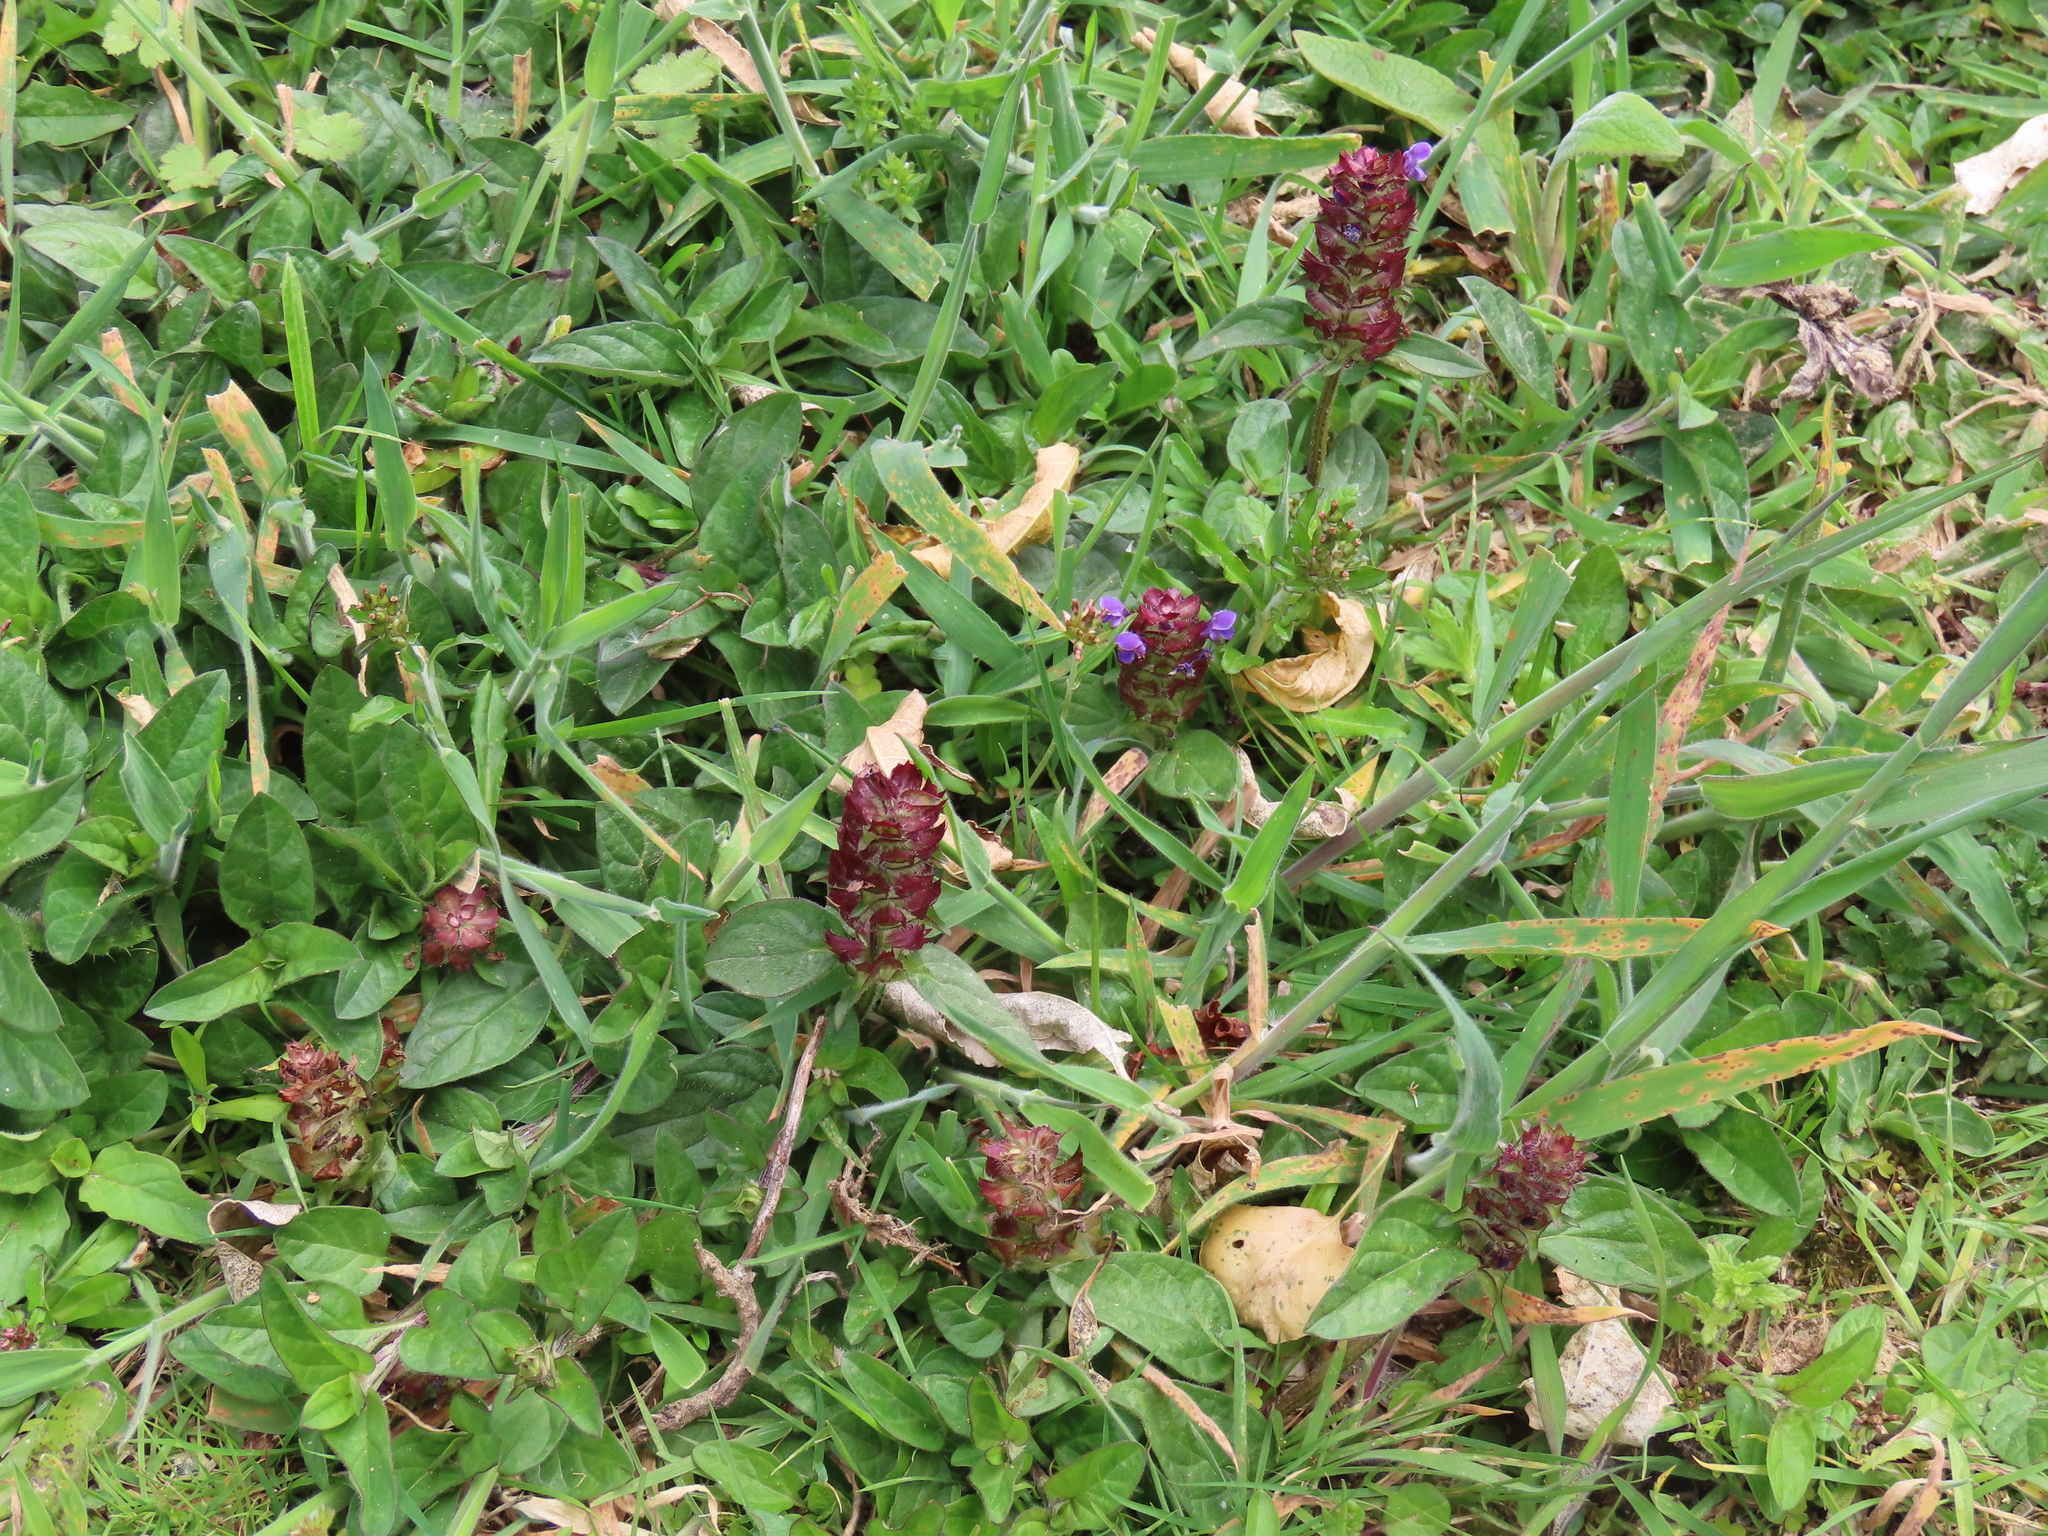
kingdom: Plantae
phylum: Tracheophyta
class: Magnoliopsida
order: Lamiales
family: Lamiaceae
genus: Prunella
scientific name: Prunella vulgaris
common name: Heal-all
